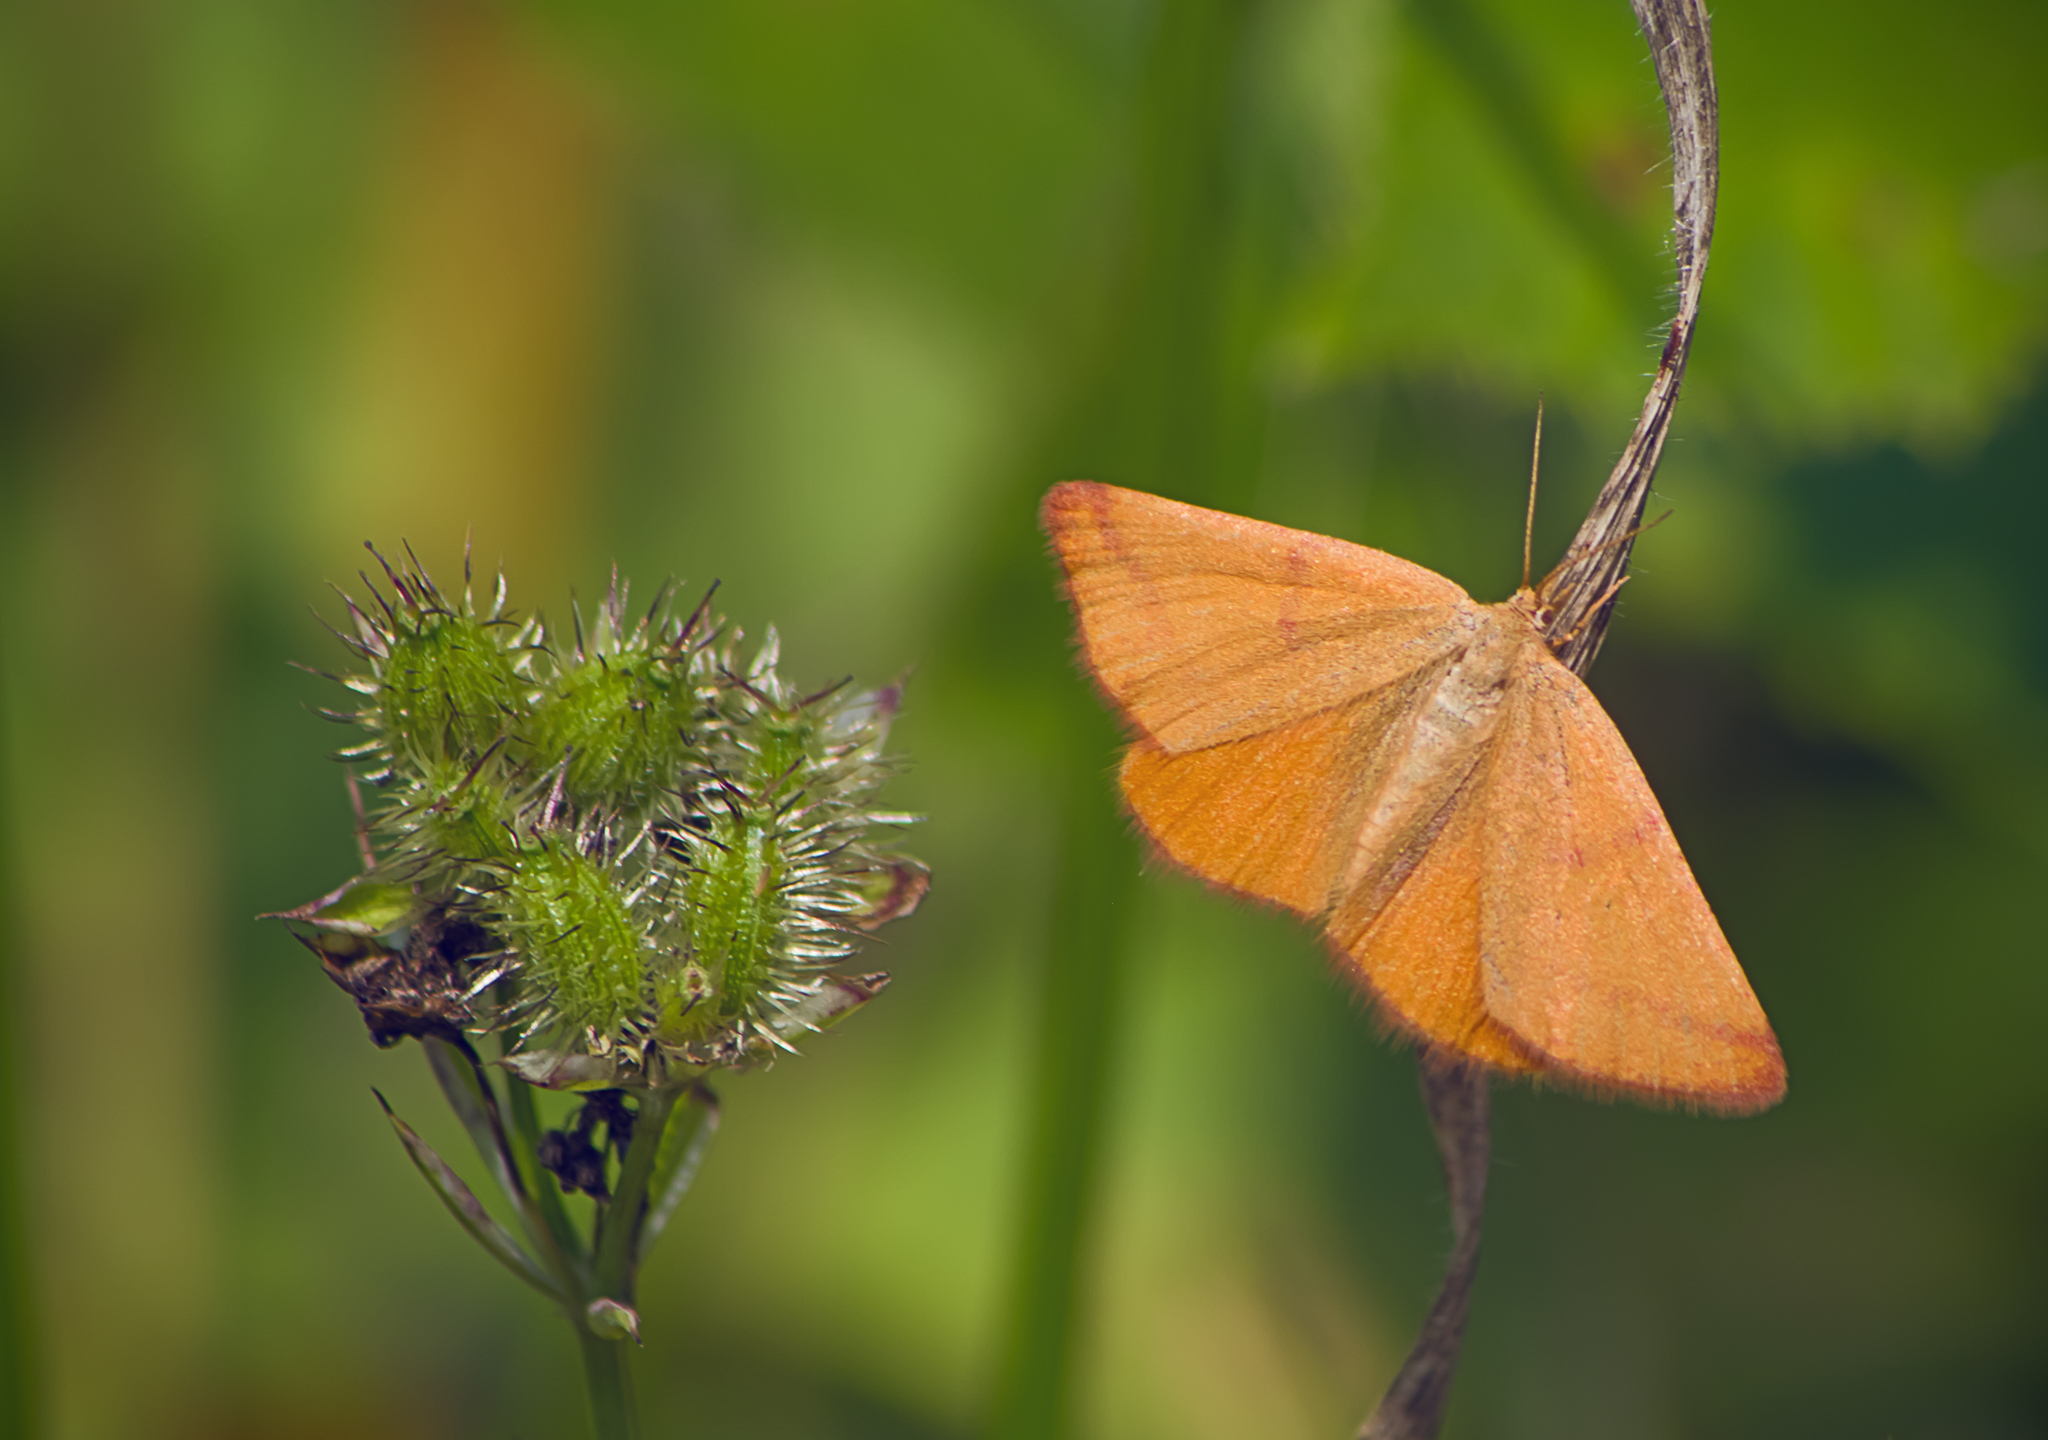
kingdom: Animalia
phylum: Arthropoda
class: Insecta
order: Lepidoptera
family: Geometridae
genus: Lythria
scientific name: Lythria purpuraria
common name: Purple-barred yellow
